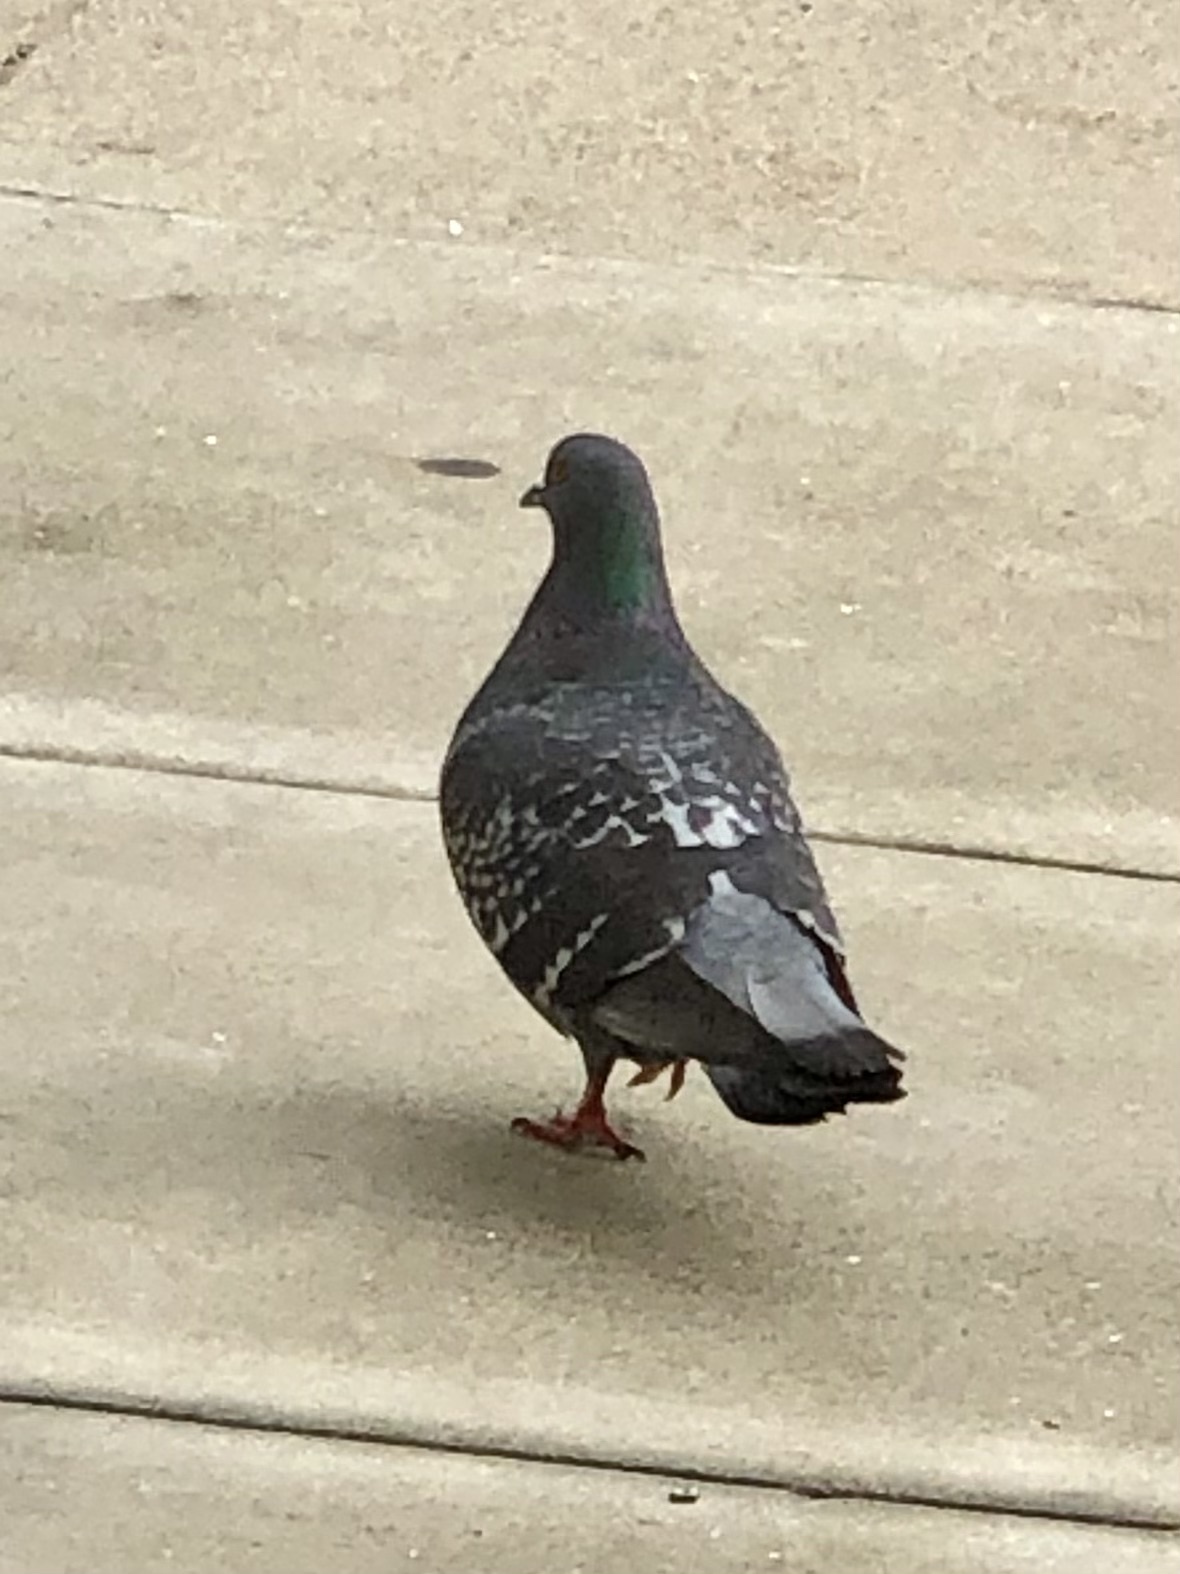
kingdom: Animalia
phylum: Chordata
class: Aves
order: Columbiformes
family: Columbidae
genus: Columba
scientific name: Columba livia
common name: Rock pigeon
